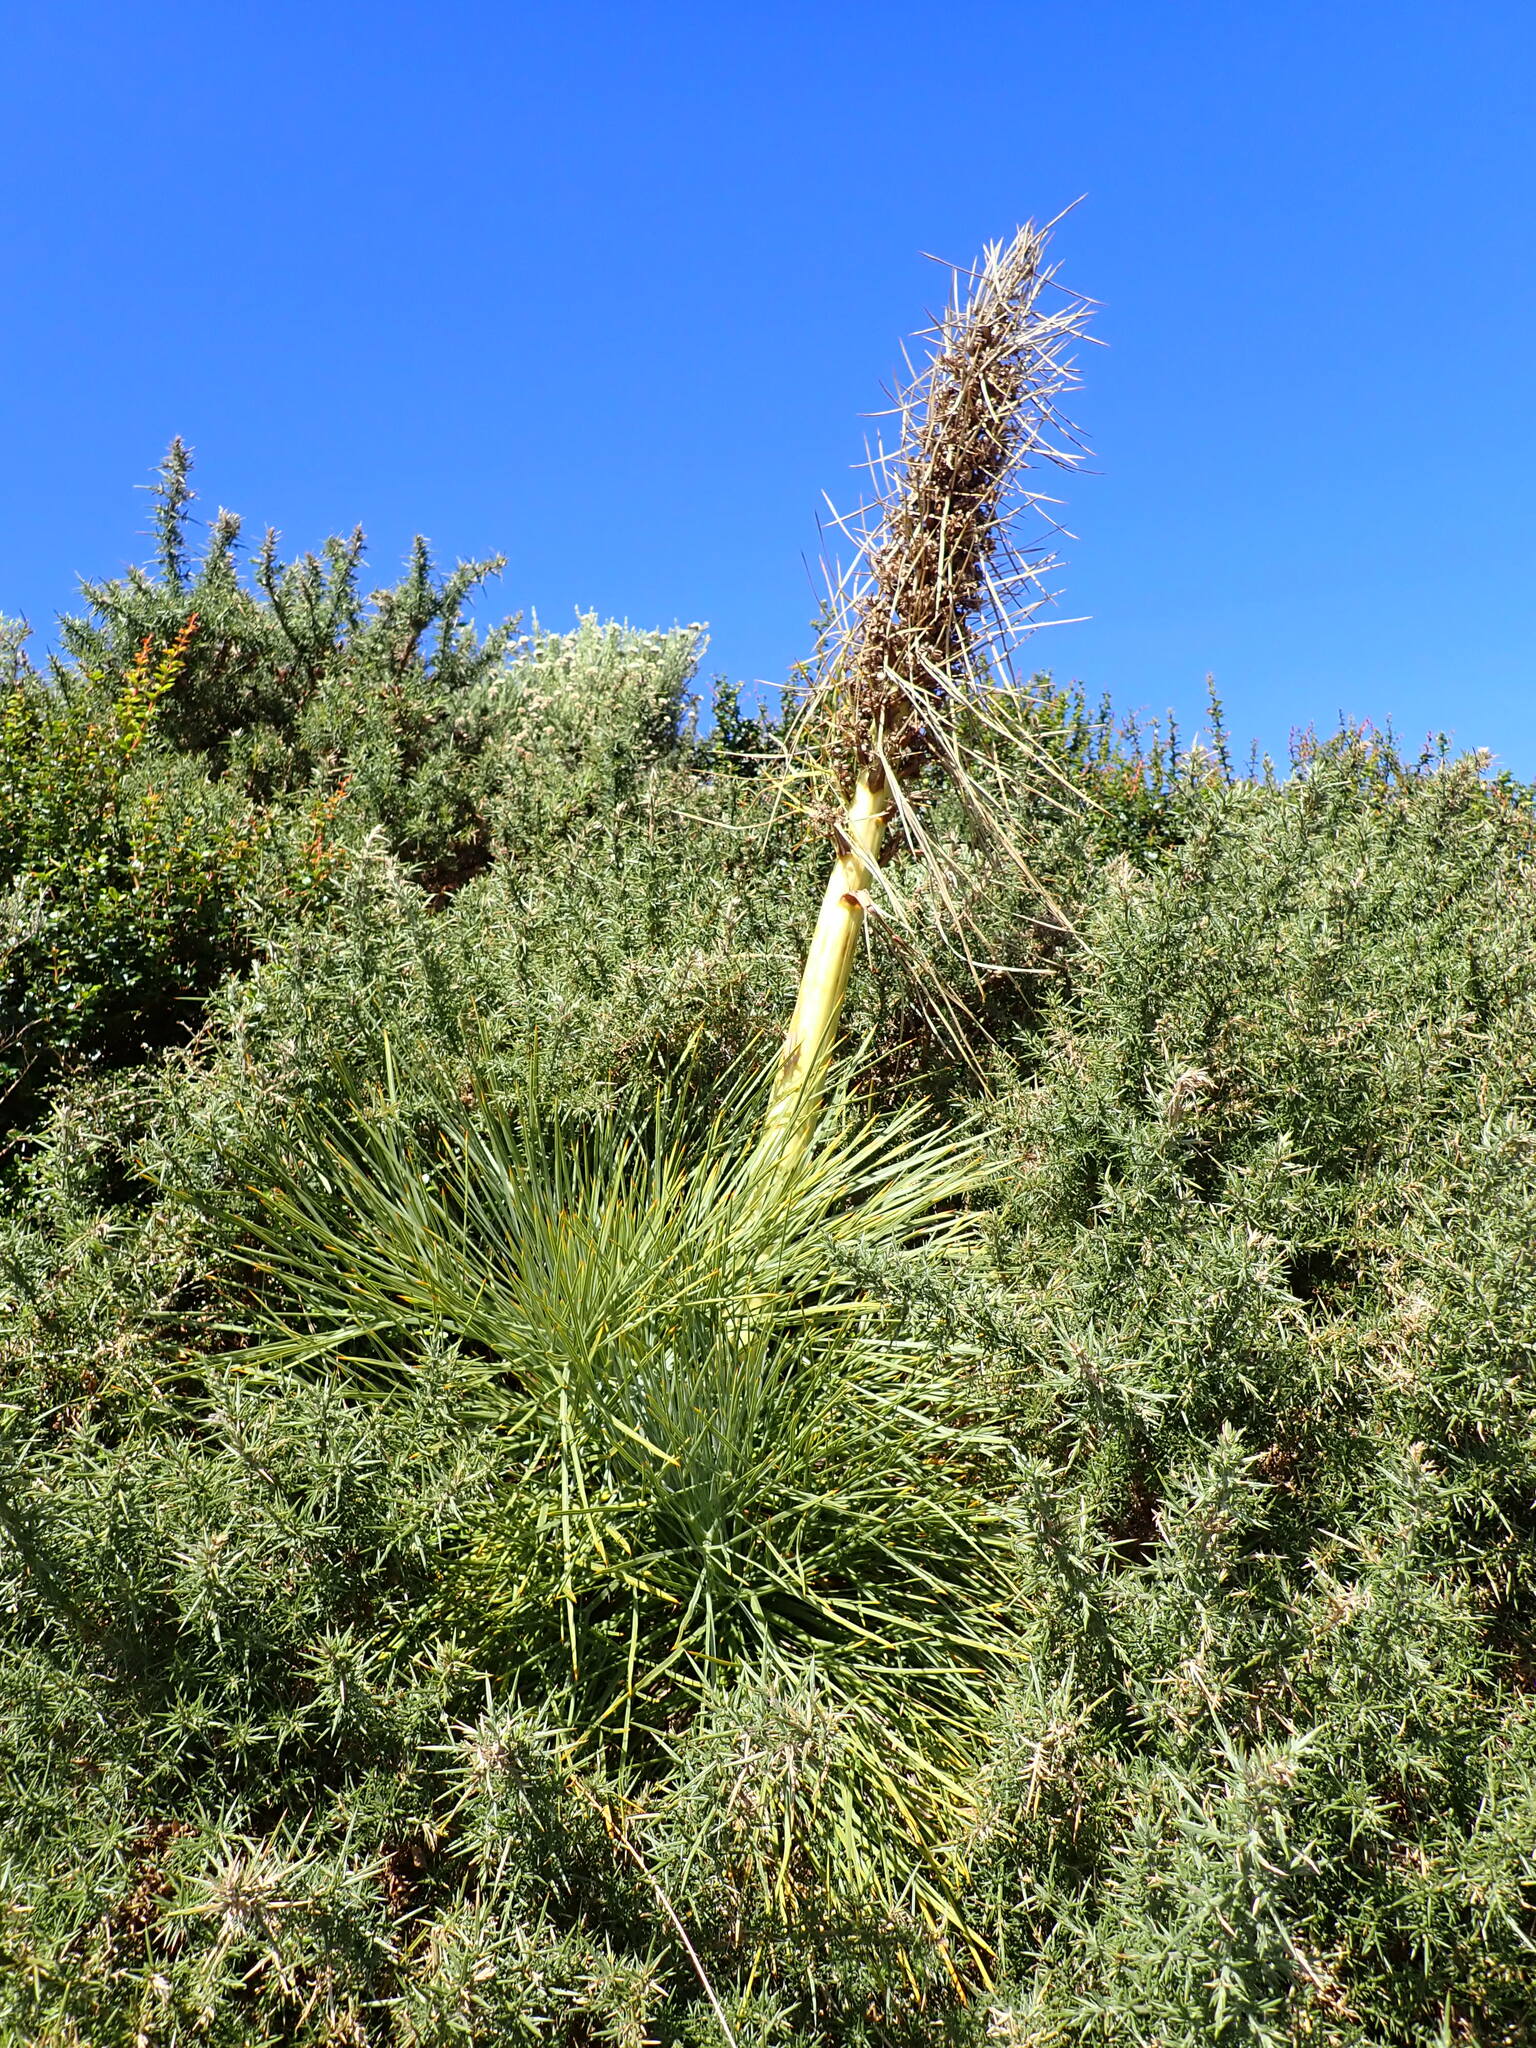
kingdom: Plantae
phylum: Tracheophyta
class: Magnoliopsida
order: Apiales
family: Apiaceae
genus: Aciphylla
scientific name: Aciphylla squarrosa
